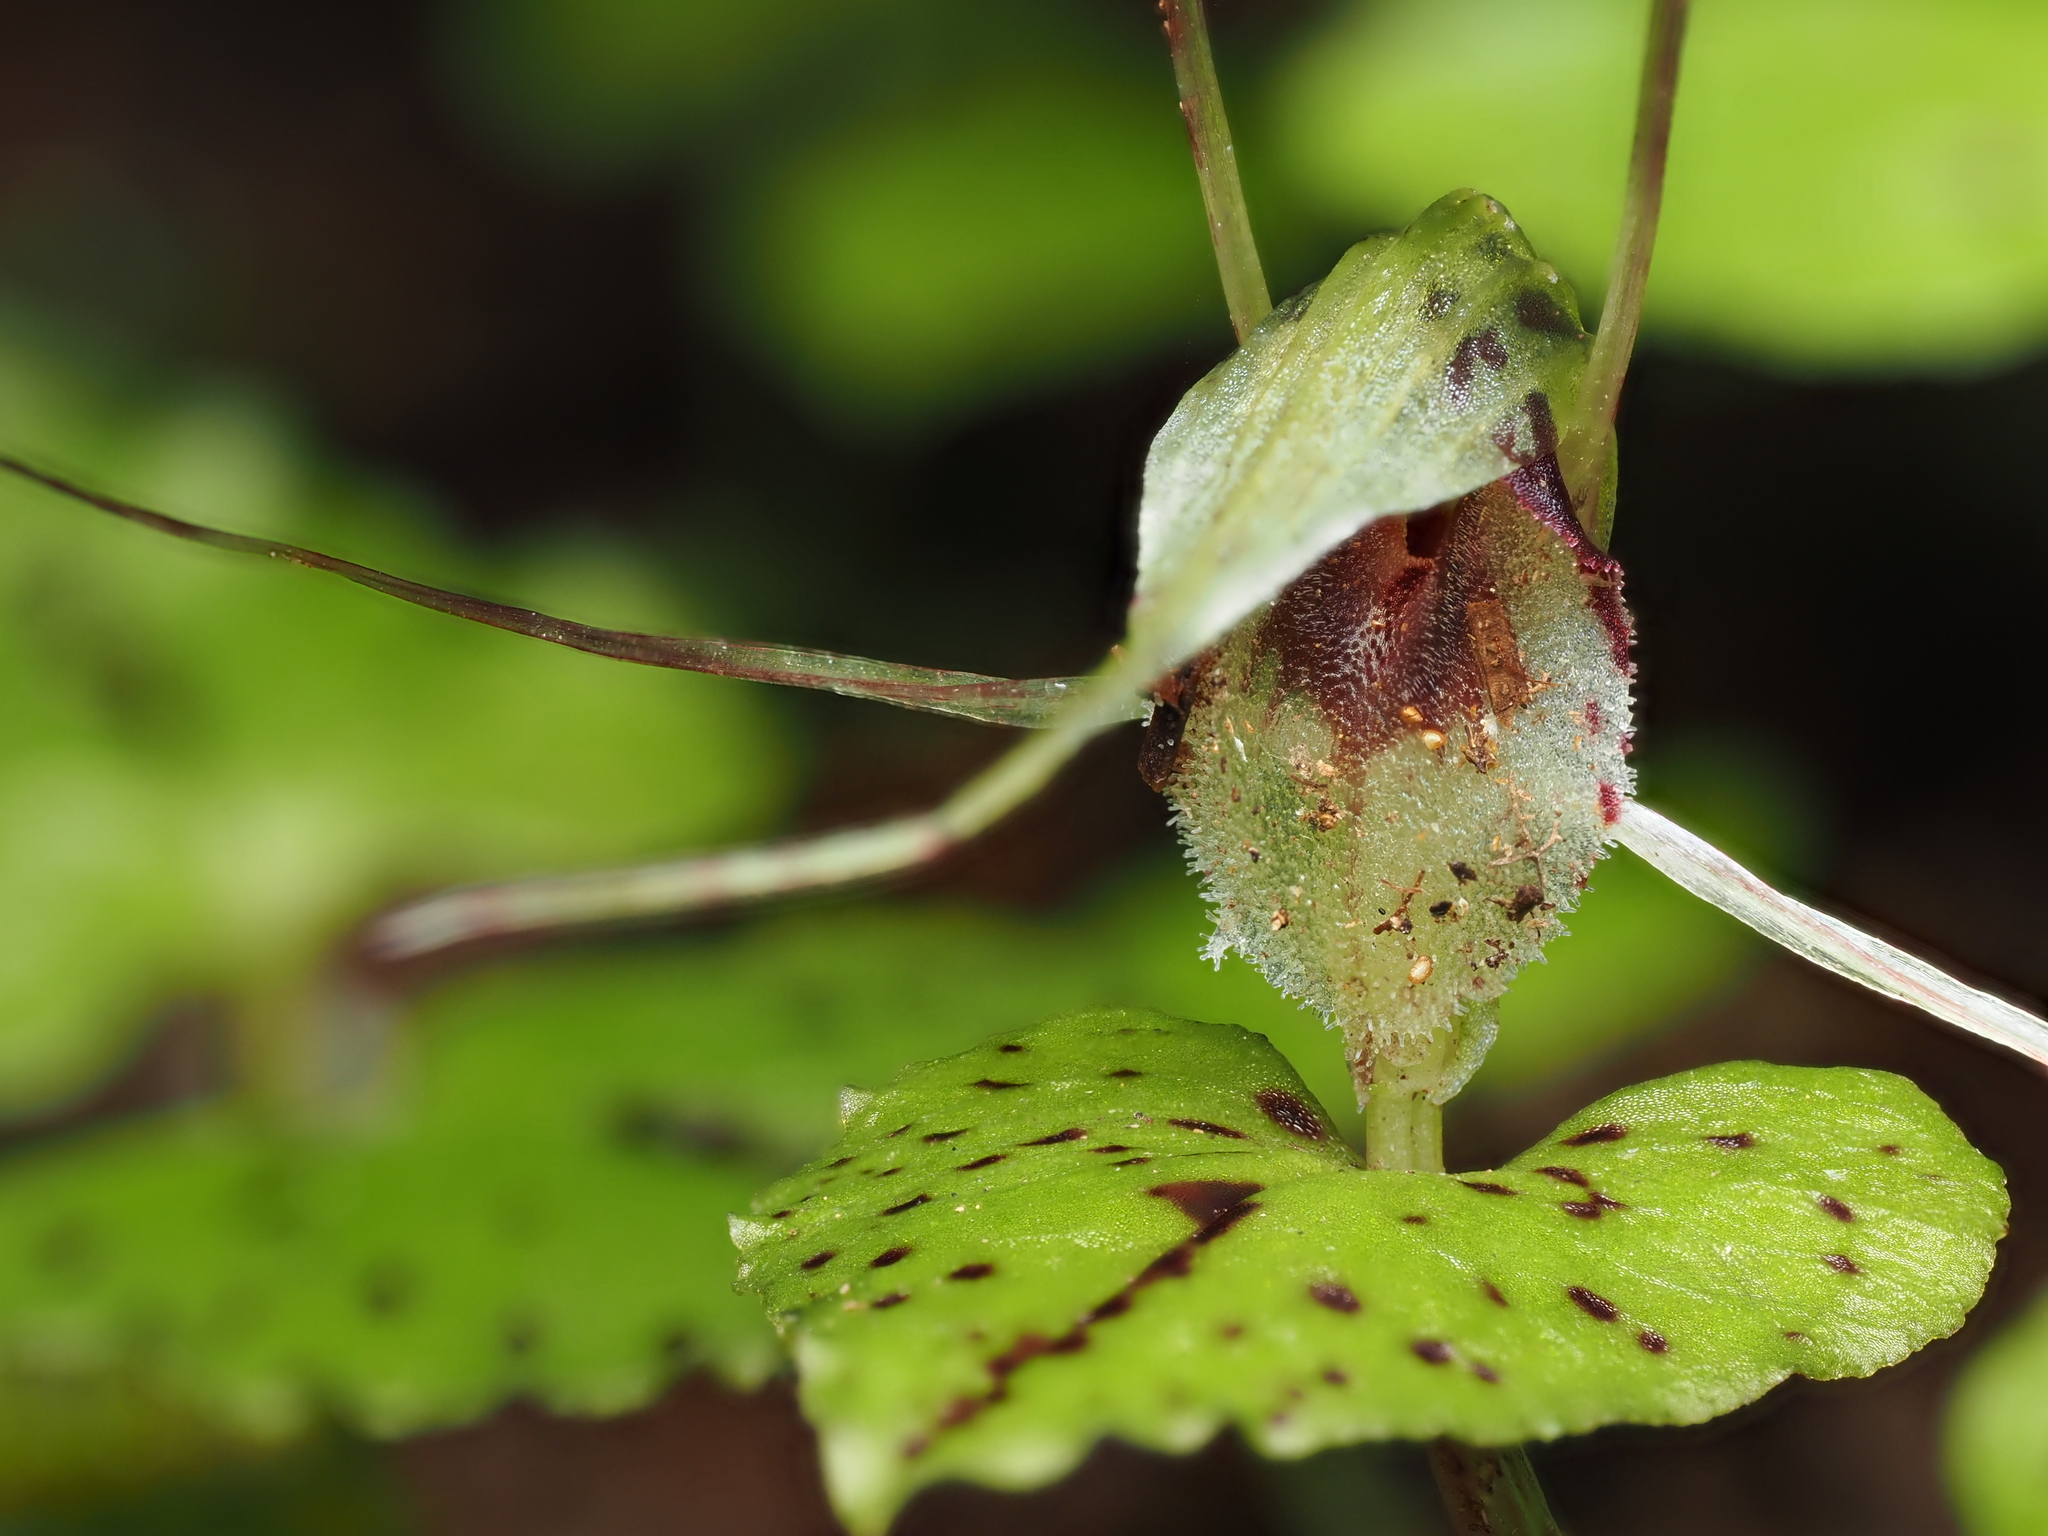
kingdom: Plantae
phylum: Tracheophyta
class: Liliopsida
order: Asparagales
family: Orchidaceae
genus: Corybas
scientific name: Corybas acuminatus
